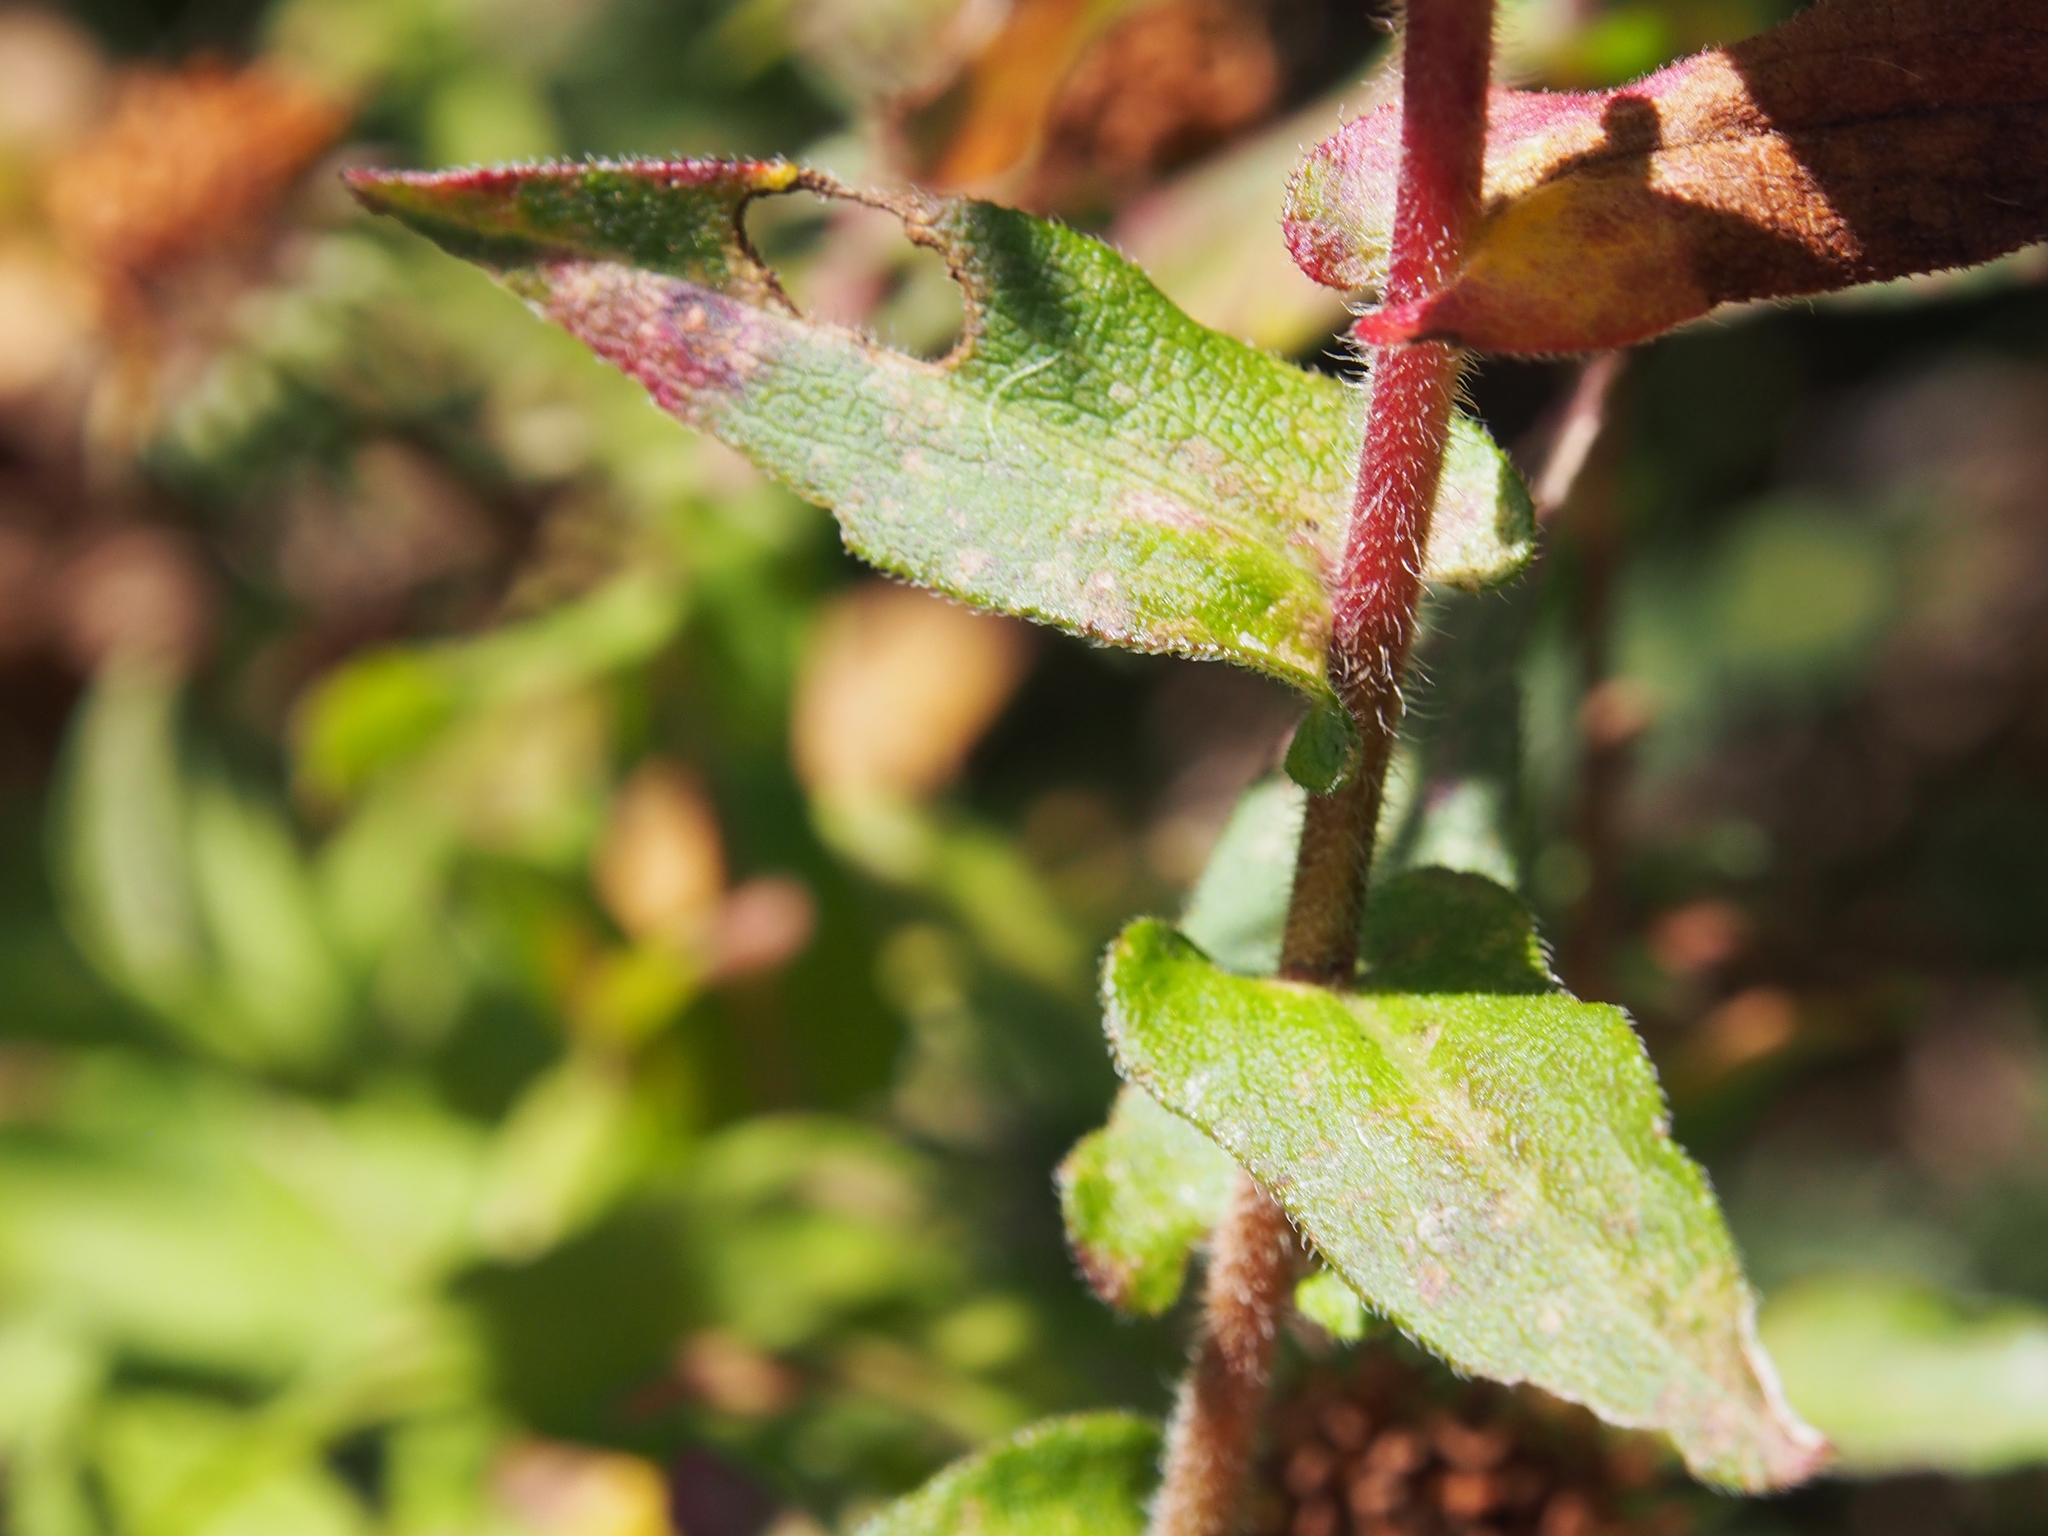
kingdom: Plantae
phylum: Tracheophyta
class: Magnoliopsida
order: Asterales
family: Asteraceae
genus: Symphyotrichum
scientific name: Symphyotrichum novae-angliae
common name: Michaelmas daisy
